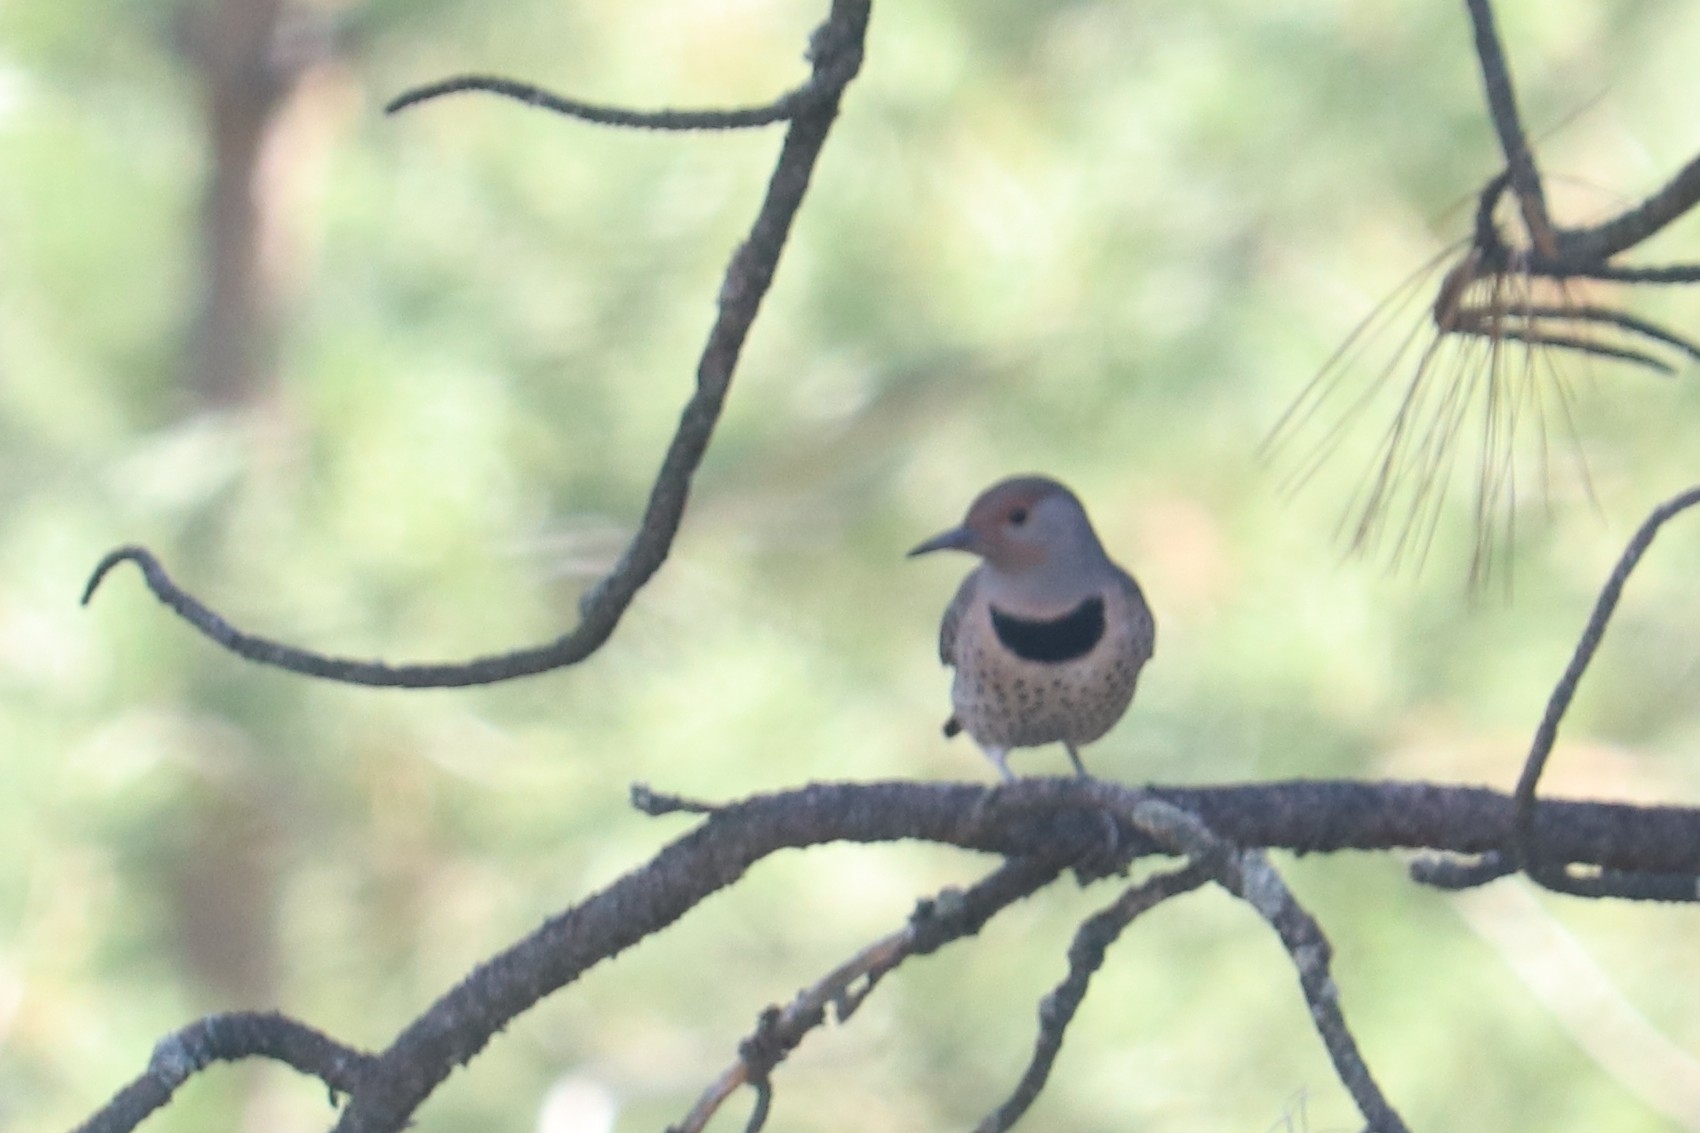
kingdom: Animalia
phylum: Chordata
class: Aves
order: Piciformes
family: Picidae
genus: Colaptes
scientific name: Colaptes auratus
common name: Northern flicker
